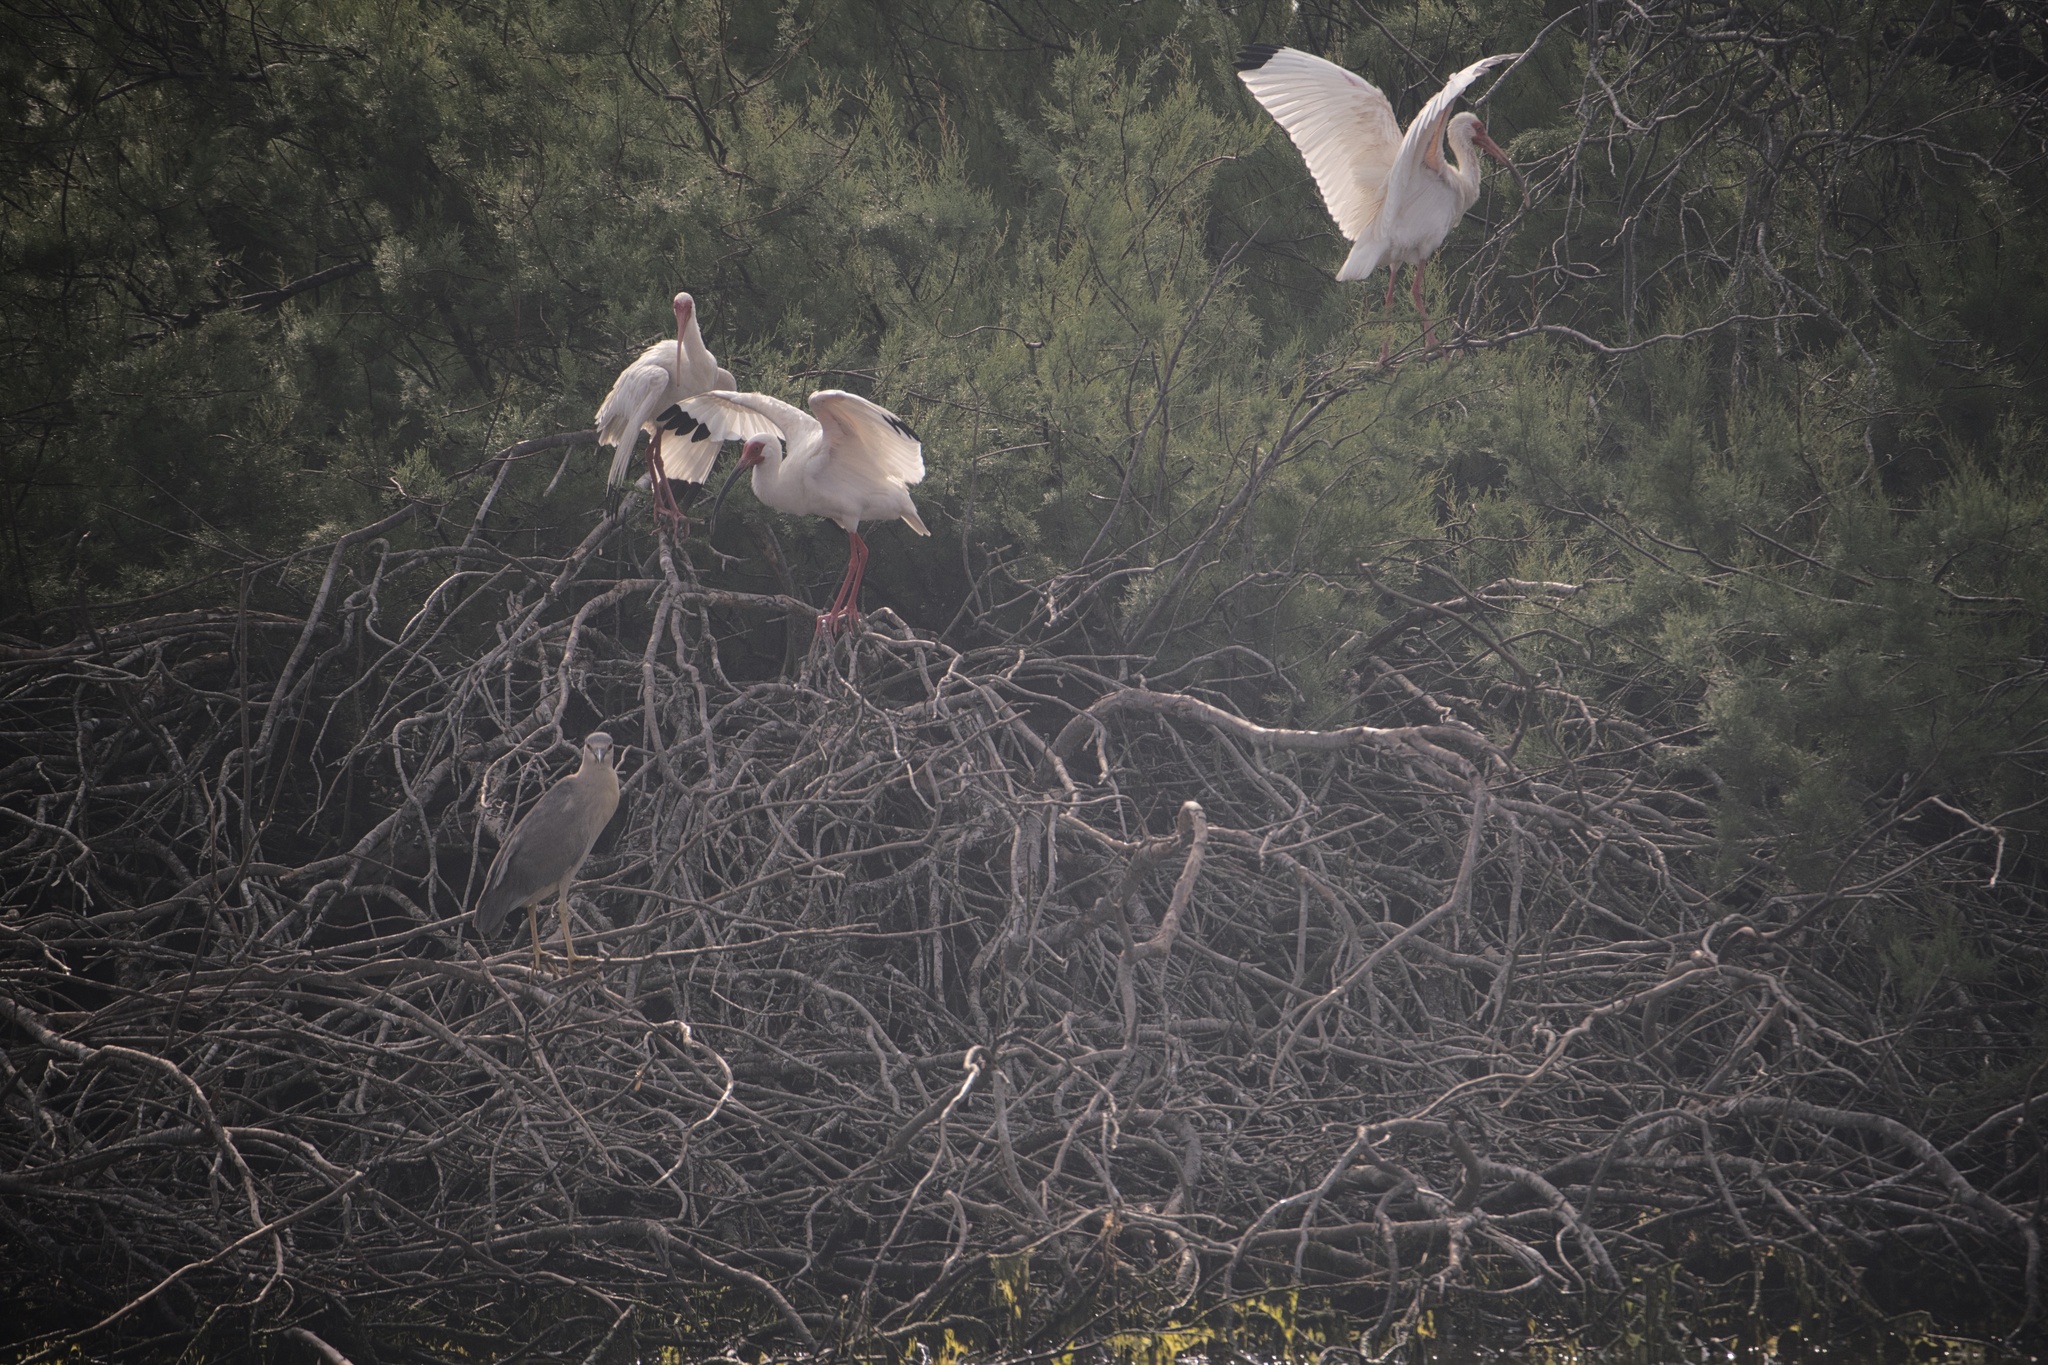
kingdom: Animalia
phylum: Chordata
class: Aves
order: Pelecaniformes
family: Threskiornithidae
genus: Eudocimus
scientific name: Eudocimus albus
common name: White ibis
